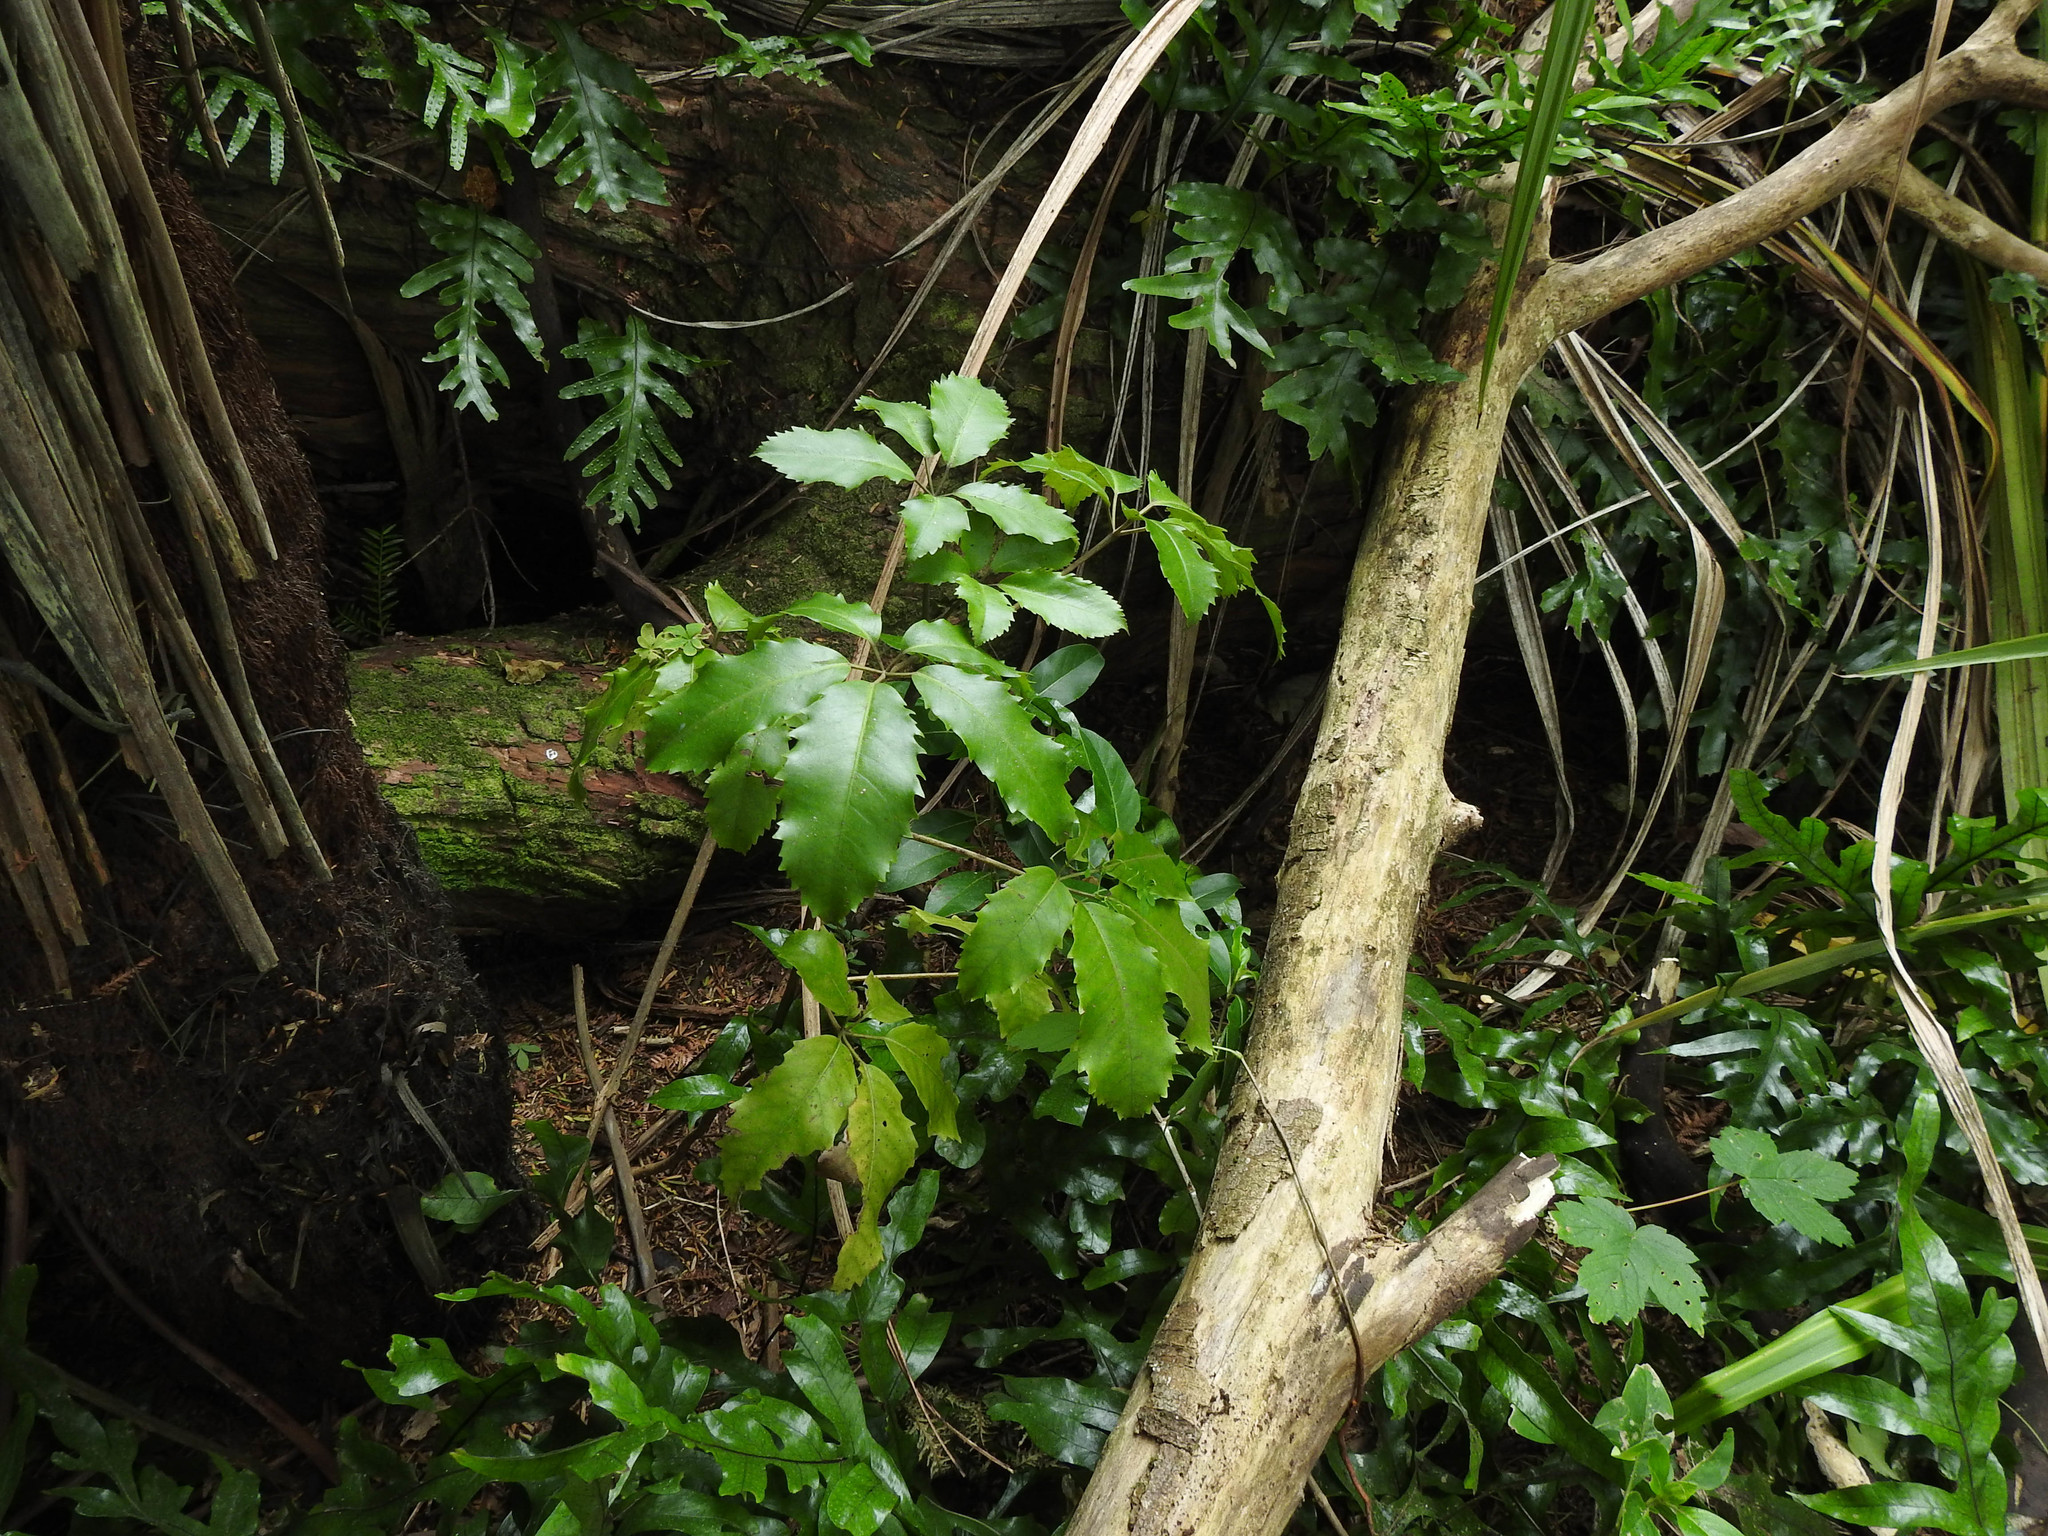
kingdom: Plantae
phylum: Tracheophyta
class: Magnoliopsida
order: Apiales
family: Araliaceae
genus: Neopanax
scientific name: Neopanax arboreus
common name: Five-fingers
